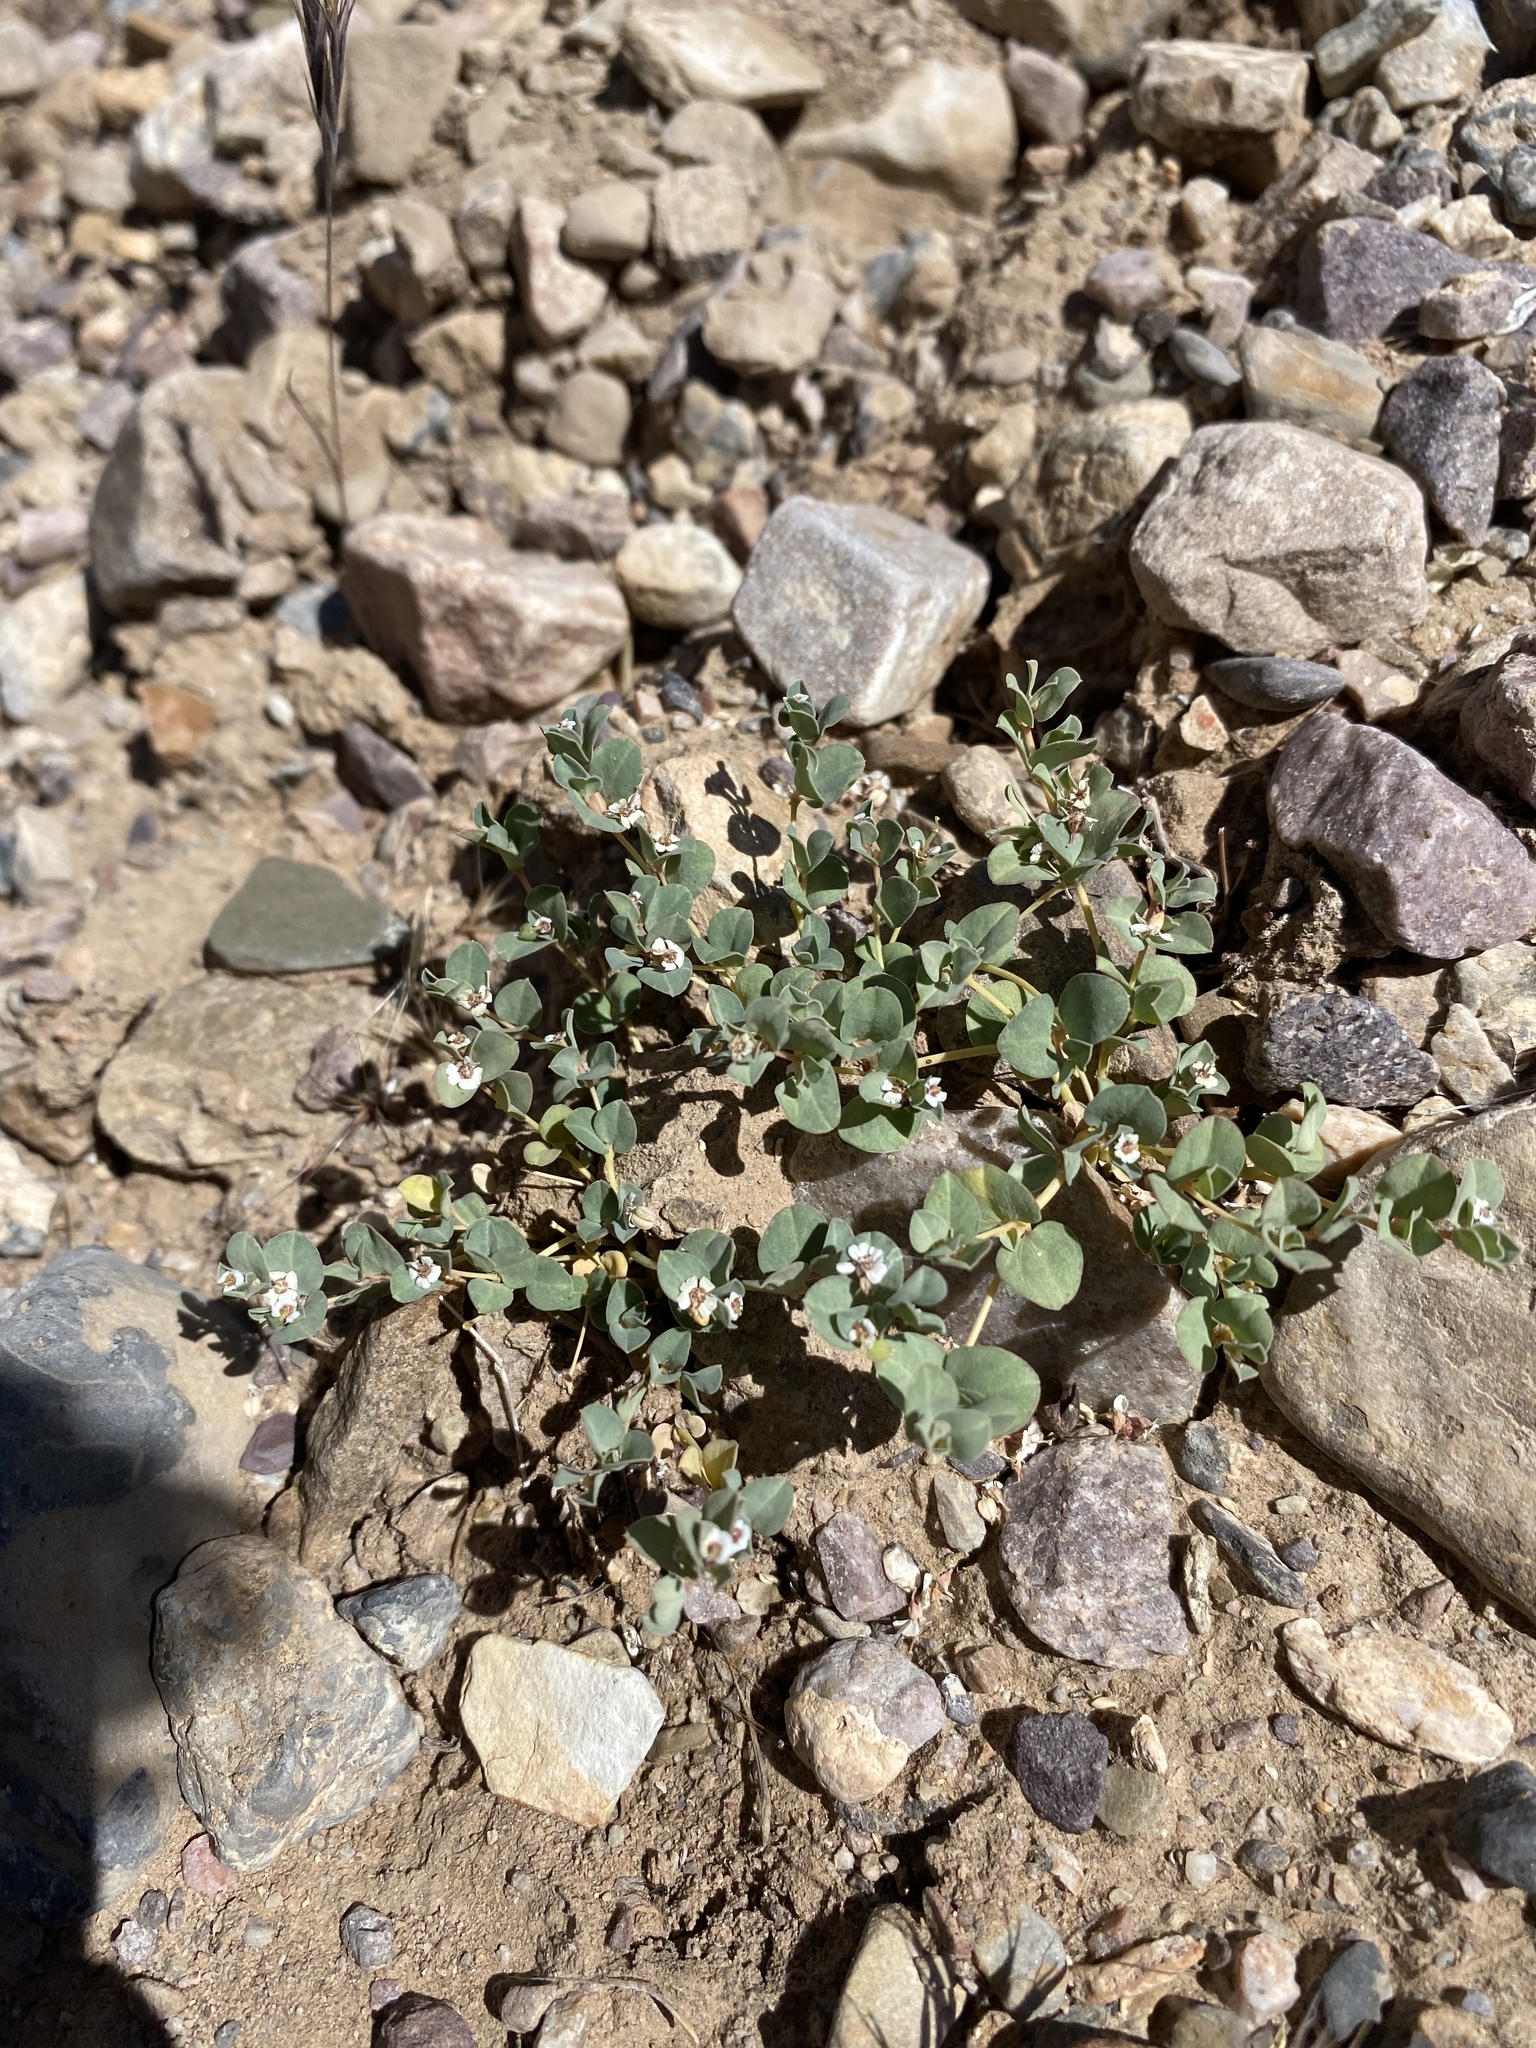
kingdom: Plantae
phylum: Tracheophyta
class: Magnoliopsida
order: Malpighiales
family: Euphorbiaceae
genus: Euphorbia
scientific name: Euphorbia albomarginata
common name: Whitemargin sandmat
